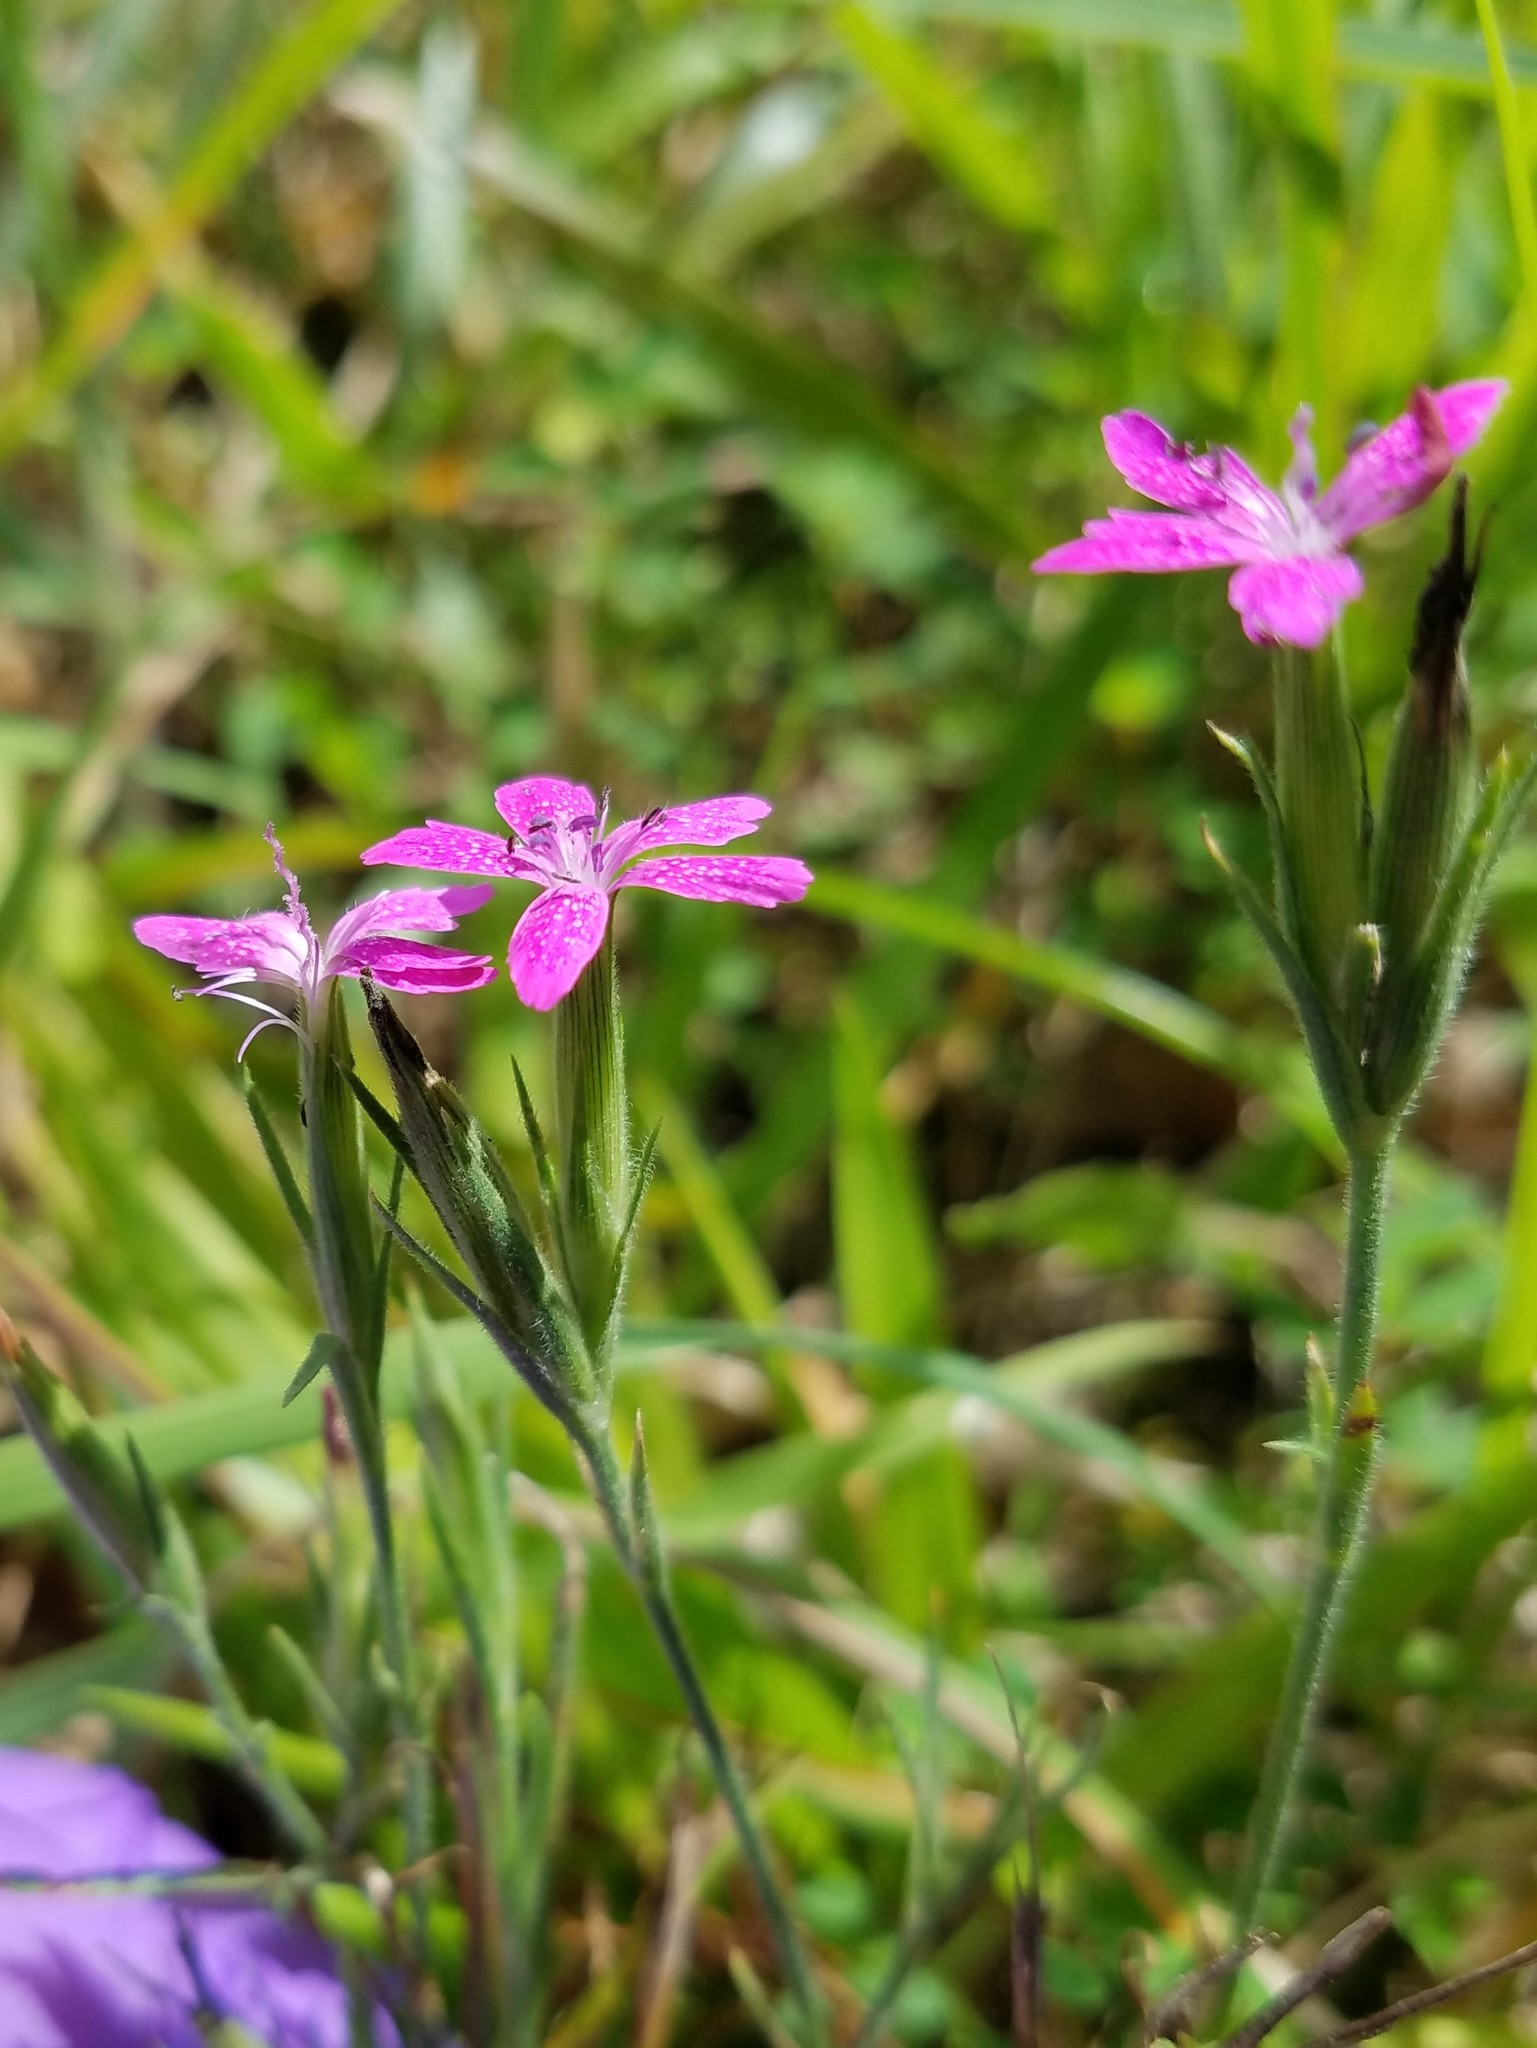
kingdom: Plantae
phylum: Tracheophyta
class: Magnoliopsida
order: Caryophyllales
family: Caryophyllaceae
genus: Dianthus
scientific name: Dianthus armeria
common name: Deptford pink
